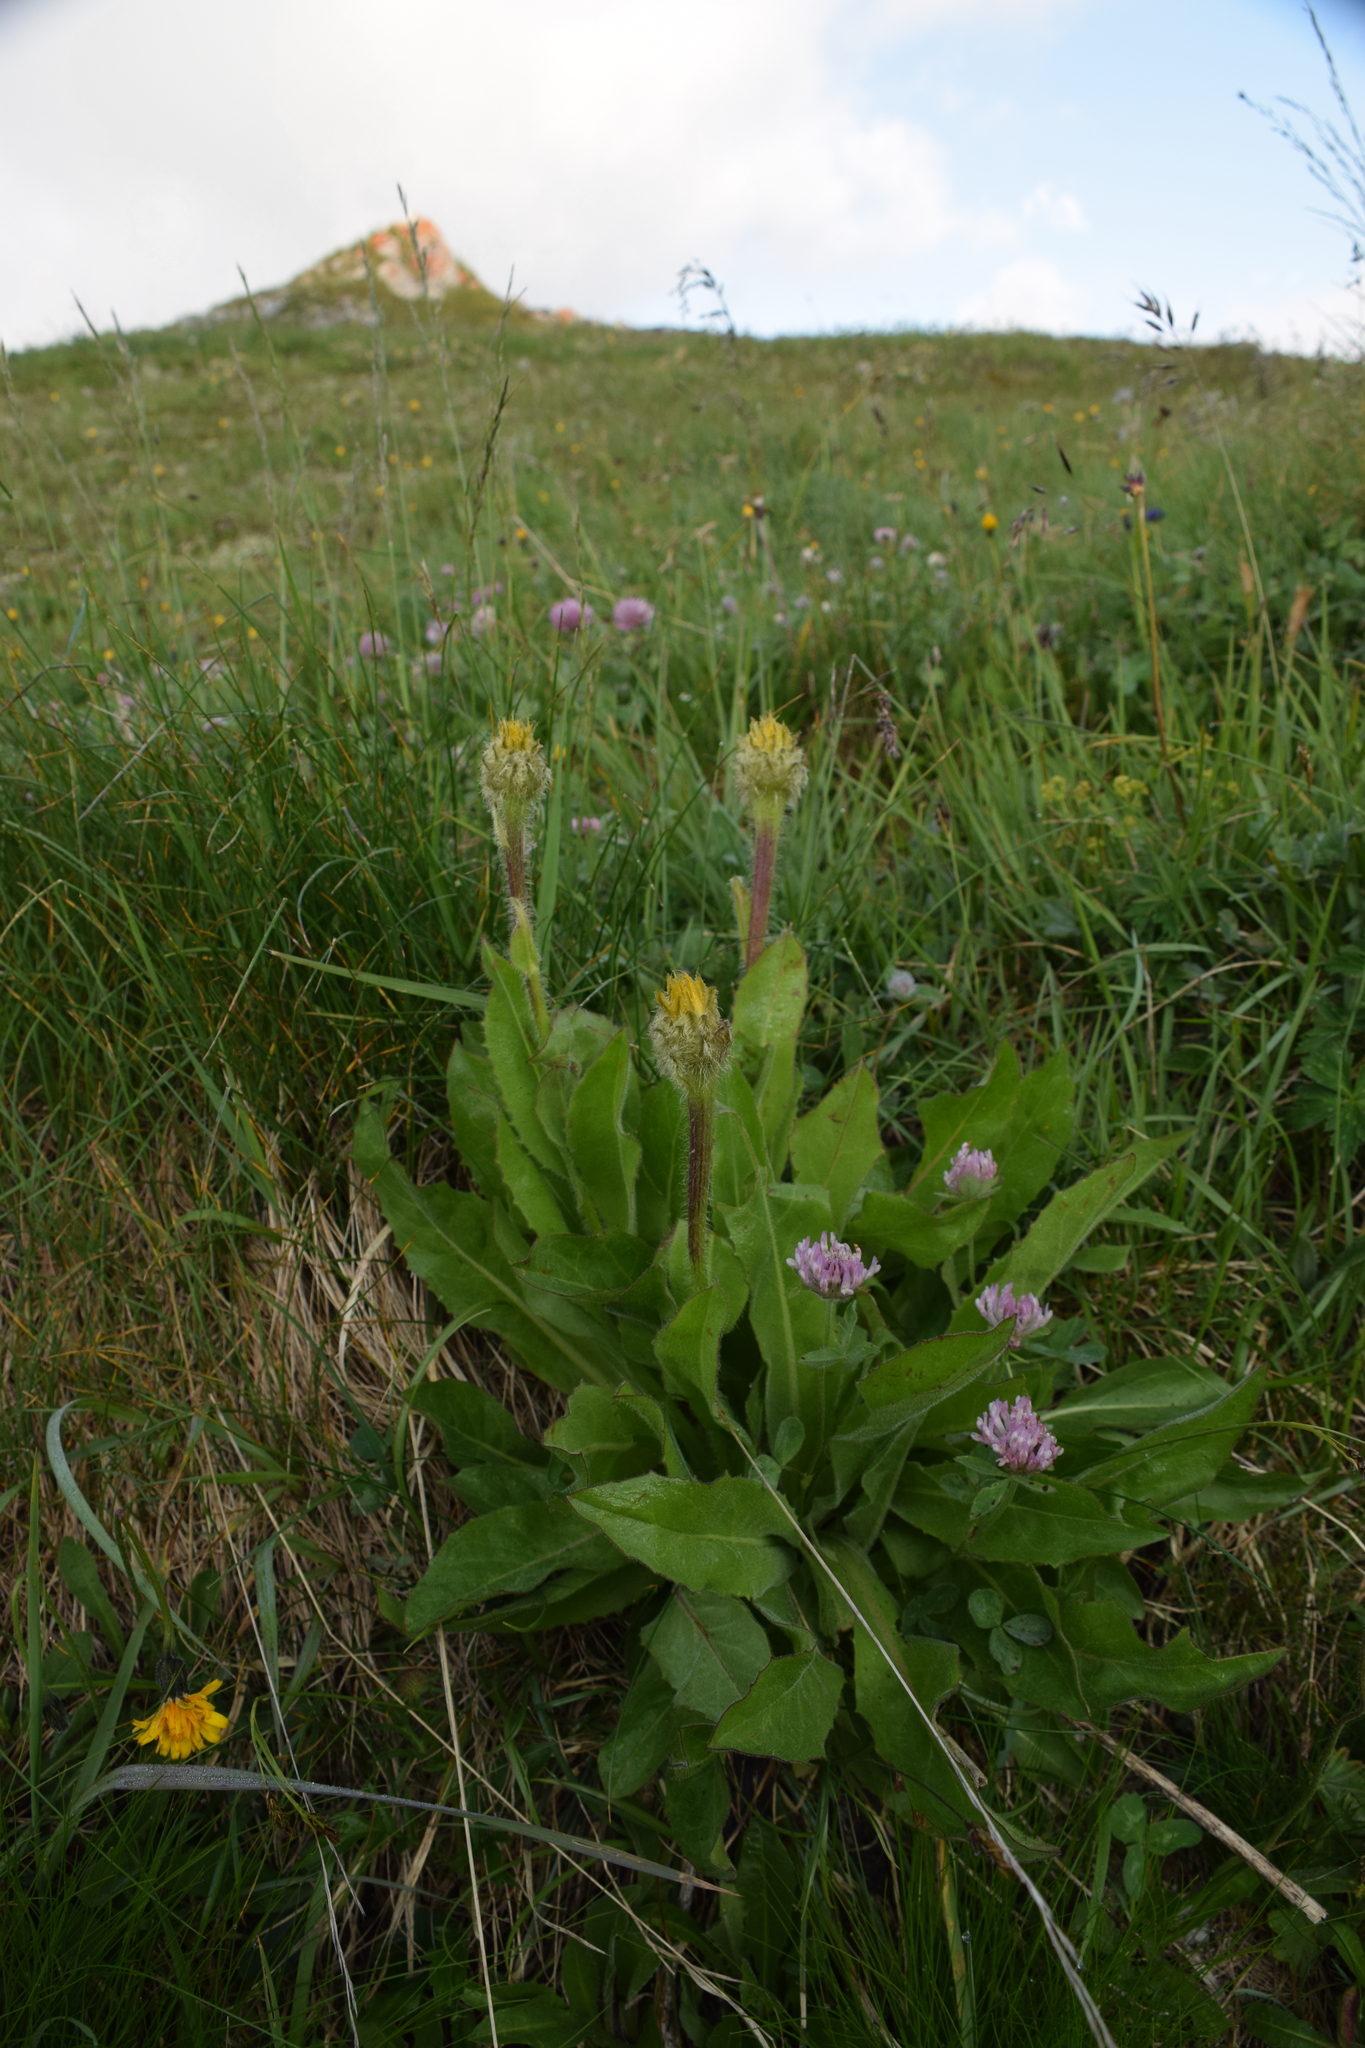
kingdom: Plantae
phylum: Tracheophyta
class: Magnoliopsida
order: Asterales
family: Asteraceae
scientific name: Asteraceae
